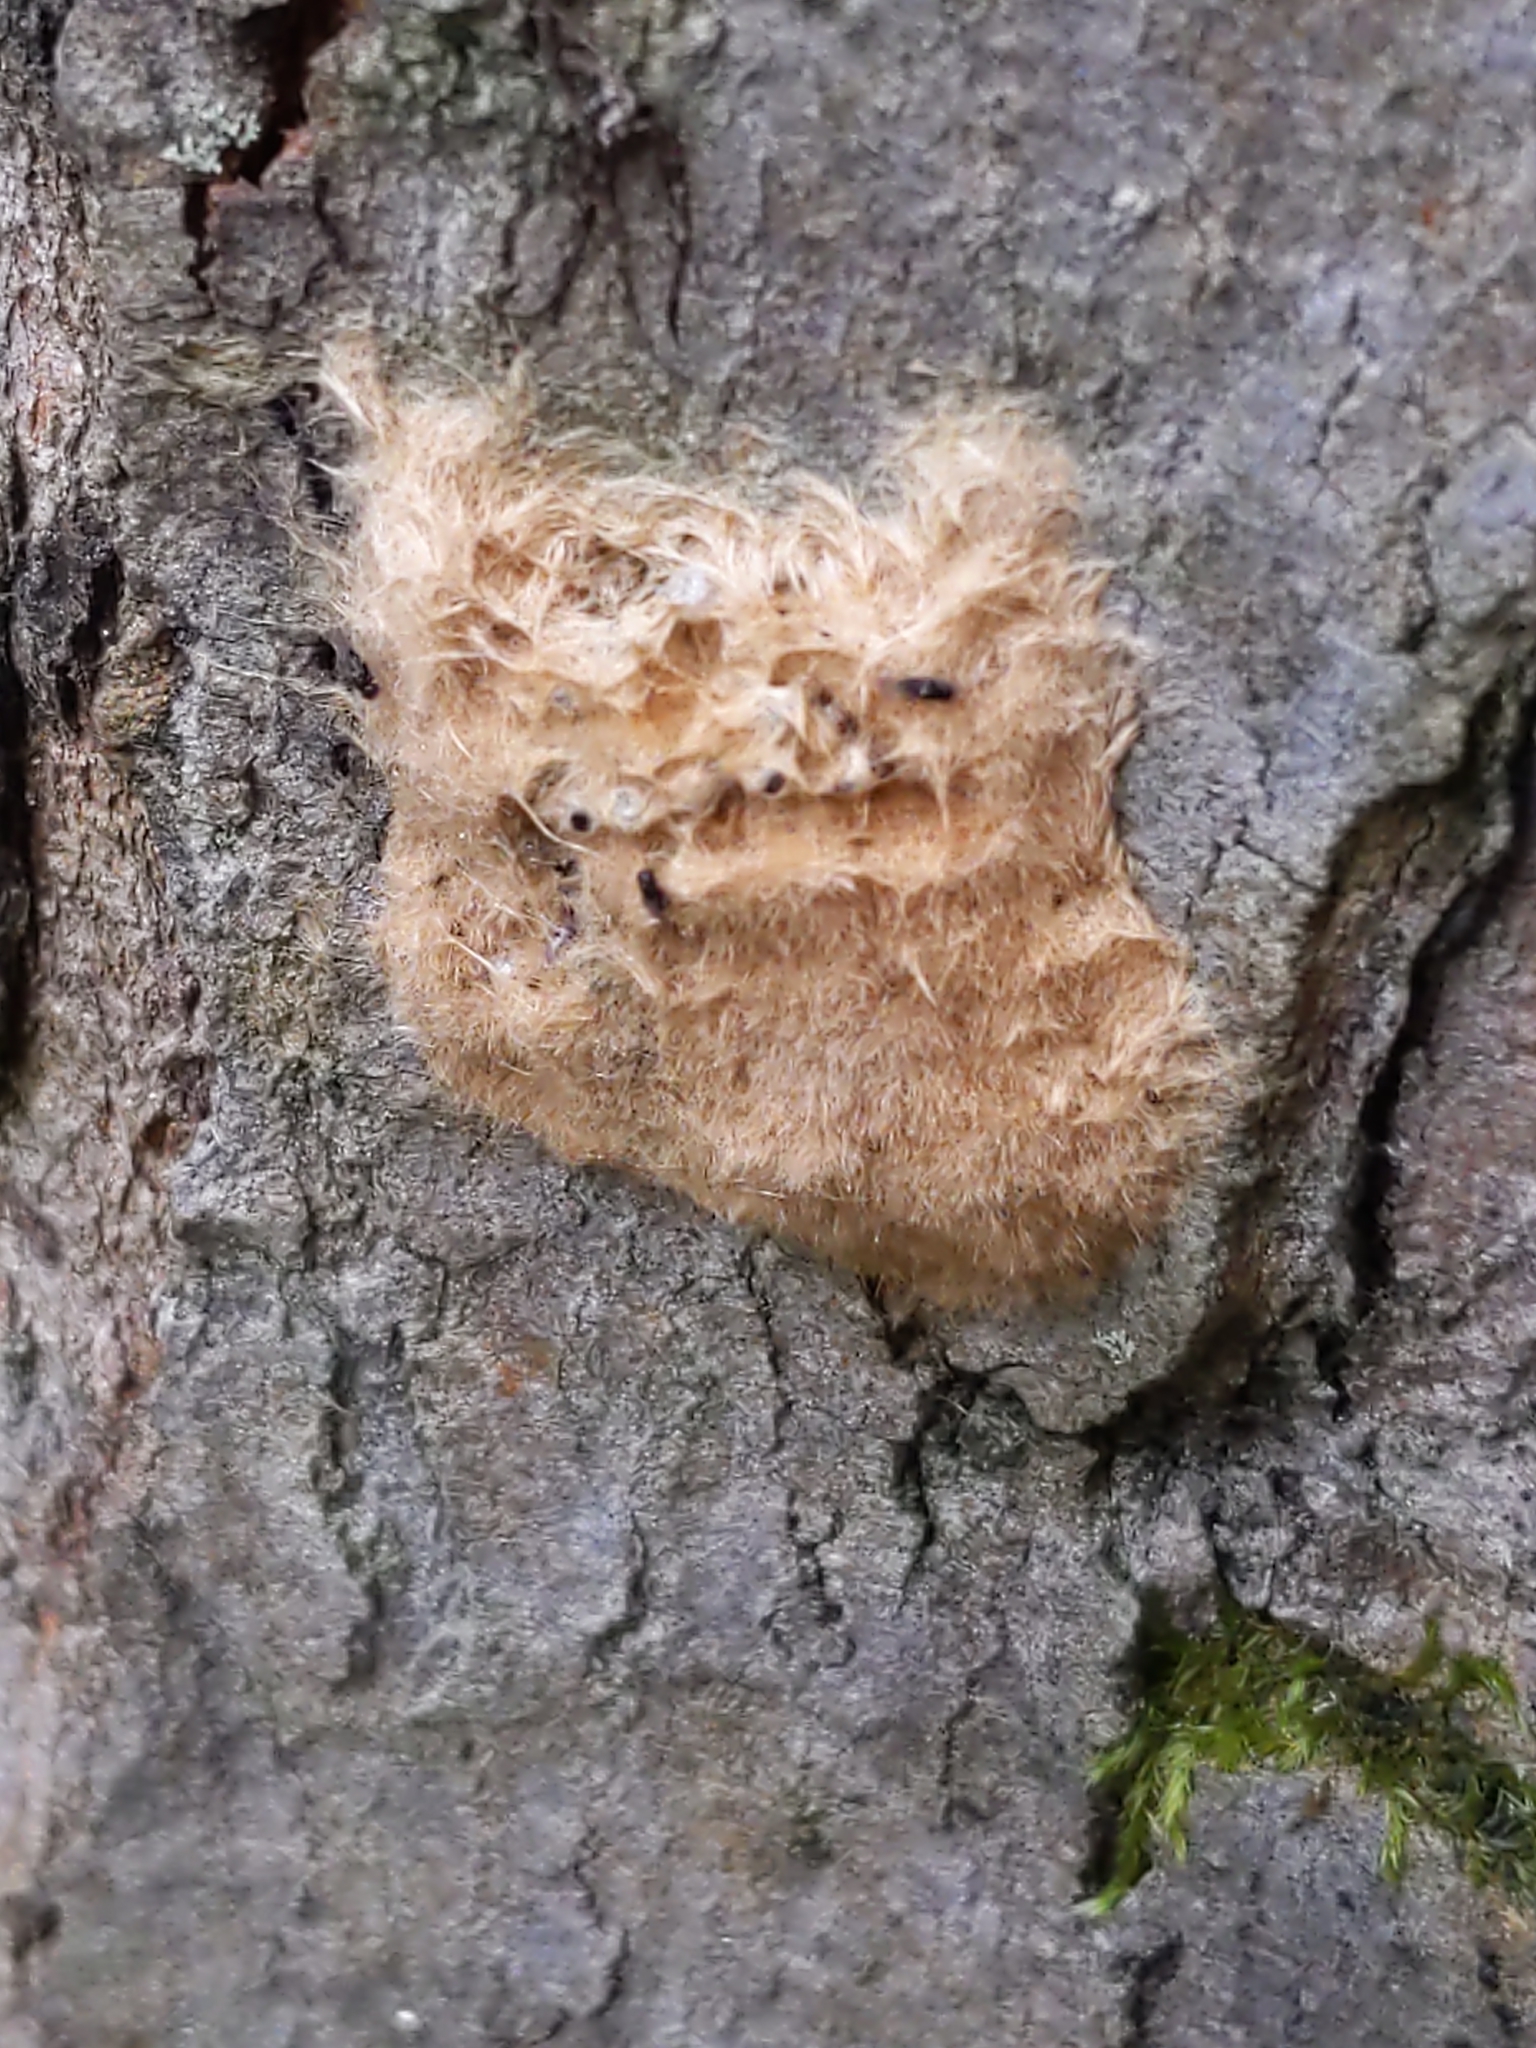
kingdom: Animalia
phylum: Arthropoda
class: Insecta
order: Lepidoptera
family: Erebidae
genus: Lymantria
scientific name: Lymantria dispar
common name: Gypsy moth
